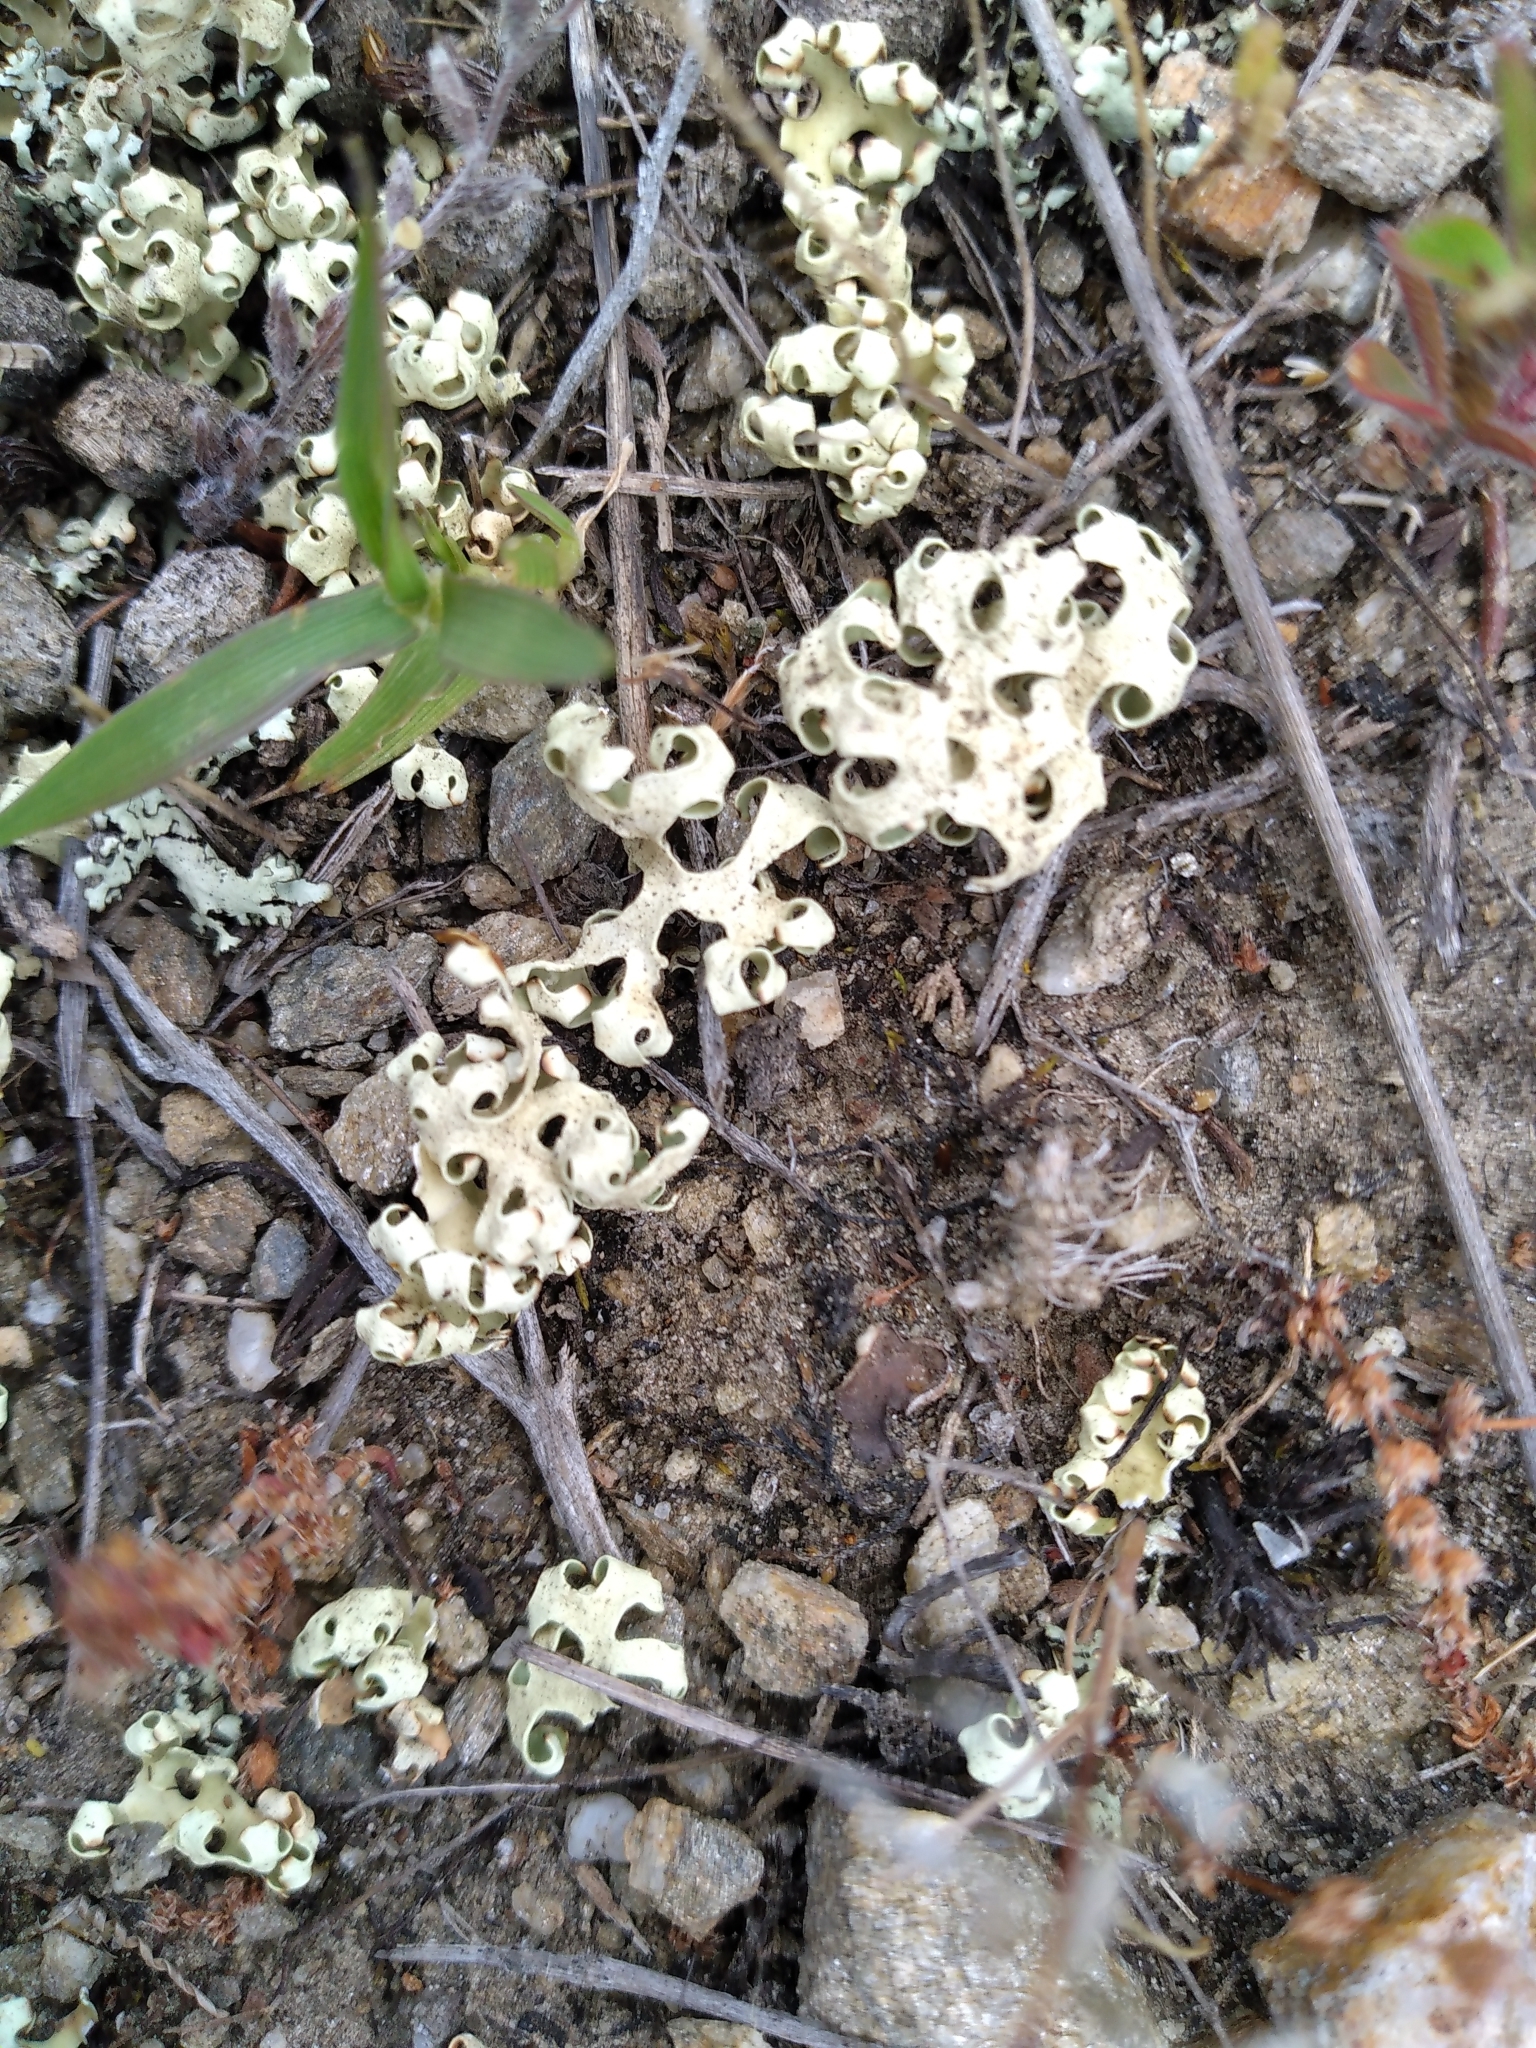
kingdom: Fungi
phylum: Ascomycota
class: Lecanoromycetes
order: Lecanorales
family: Parmeliaceae
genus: Xanthoparmelia
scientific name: Xanthoparmelia semiviridis
